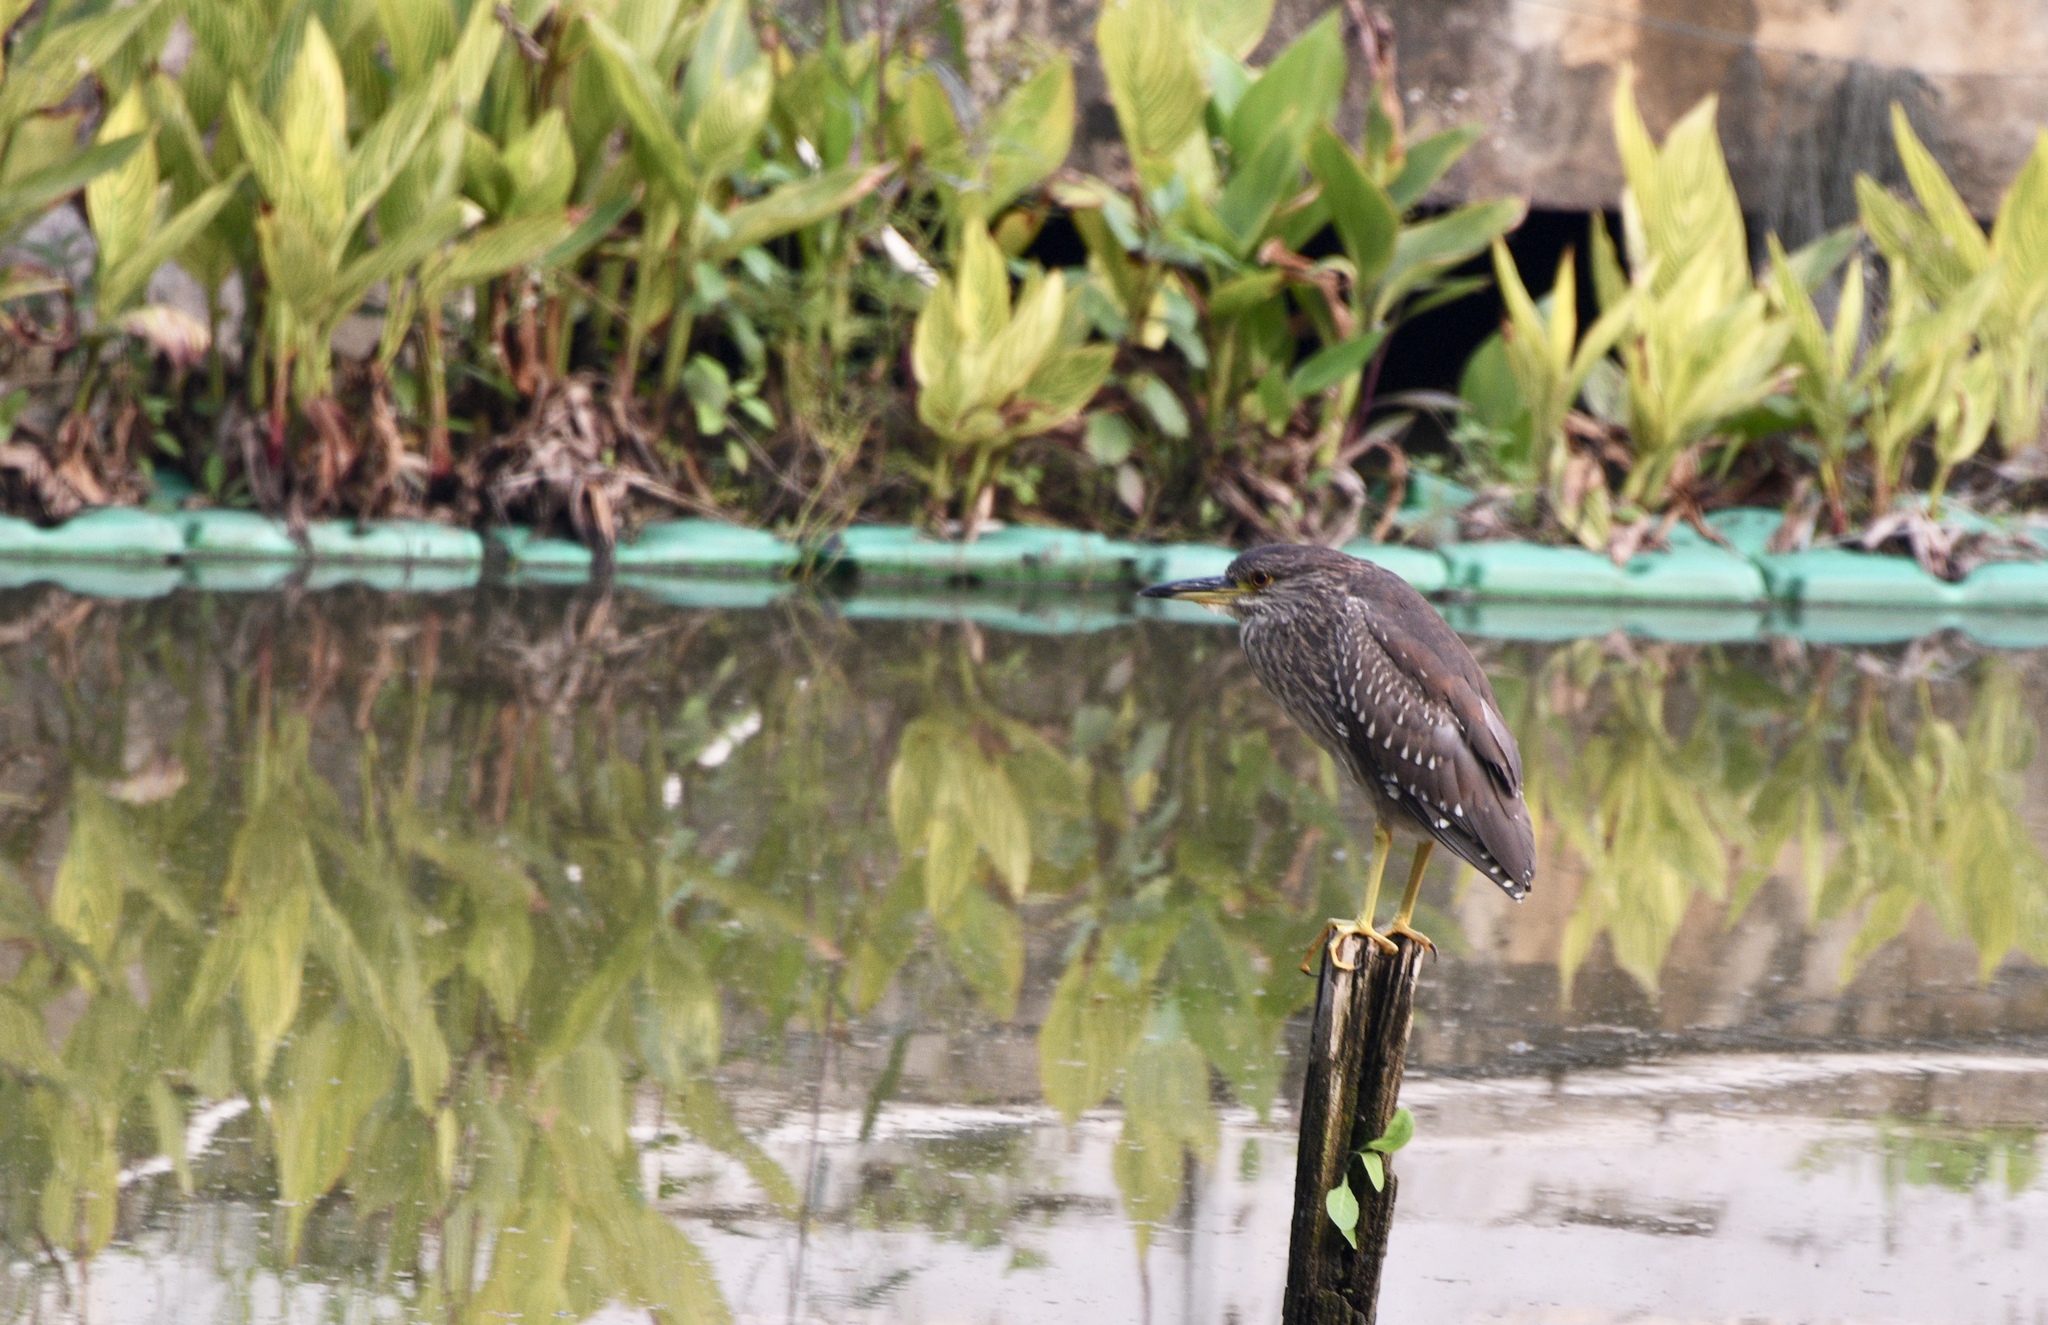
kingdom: Animalia
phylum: Chordata
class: Aves
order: Pelecaniformes
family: Ardeidae
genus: Nycticorax
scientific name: Nycticorax nycticorax
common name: Black-crowned night heron
